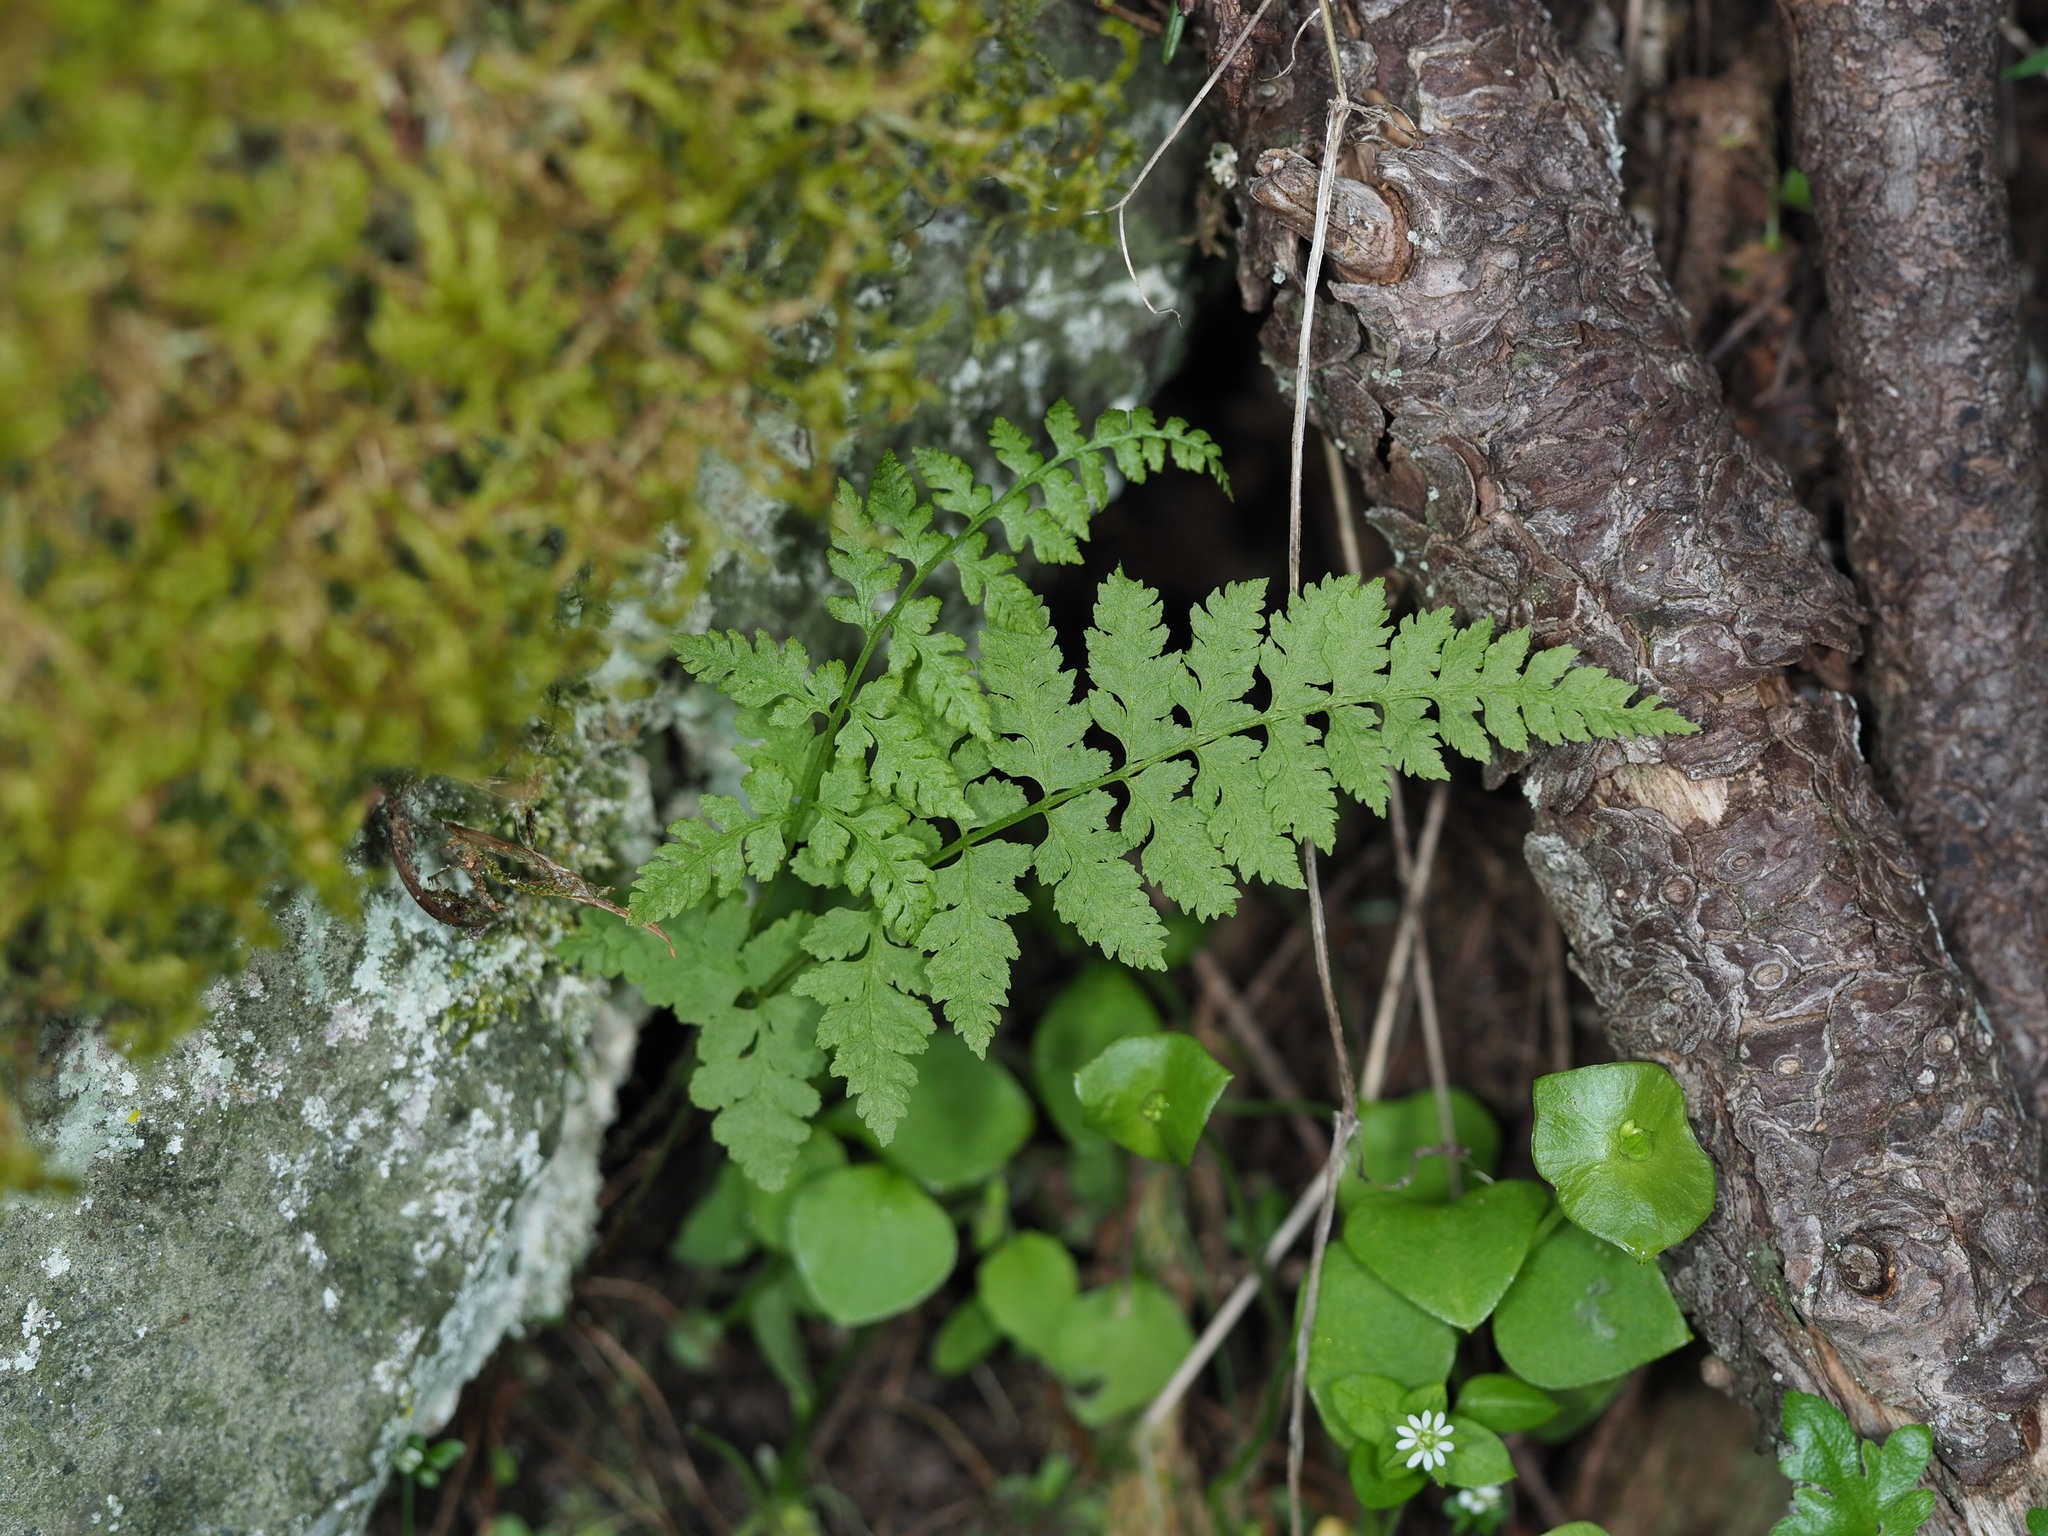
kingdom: Plantae
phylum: Tracheophyta
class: Polypodiopsida
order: Polypodiales
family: Cystopteridaceae
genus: Cystopteris
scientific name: Cystopteris fragilis
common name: Brittle bladder fern
